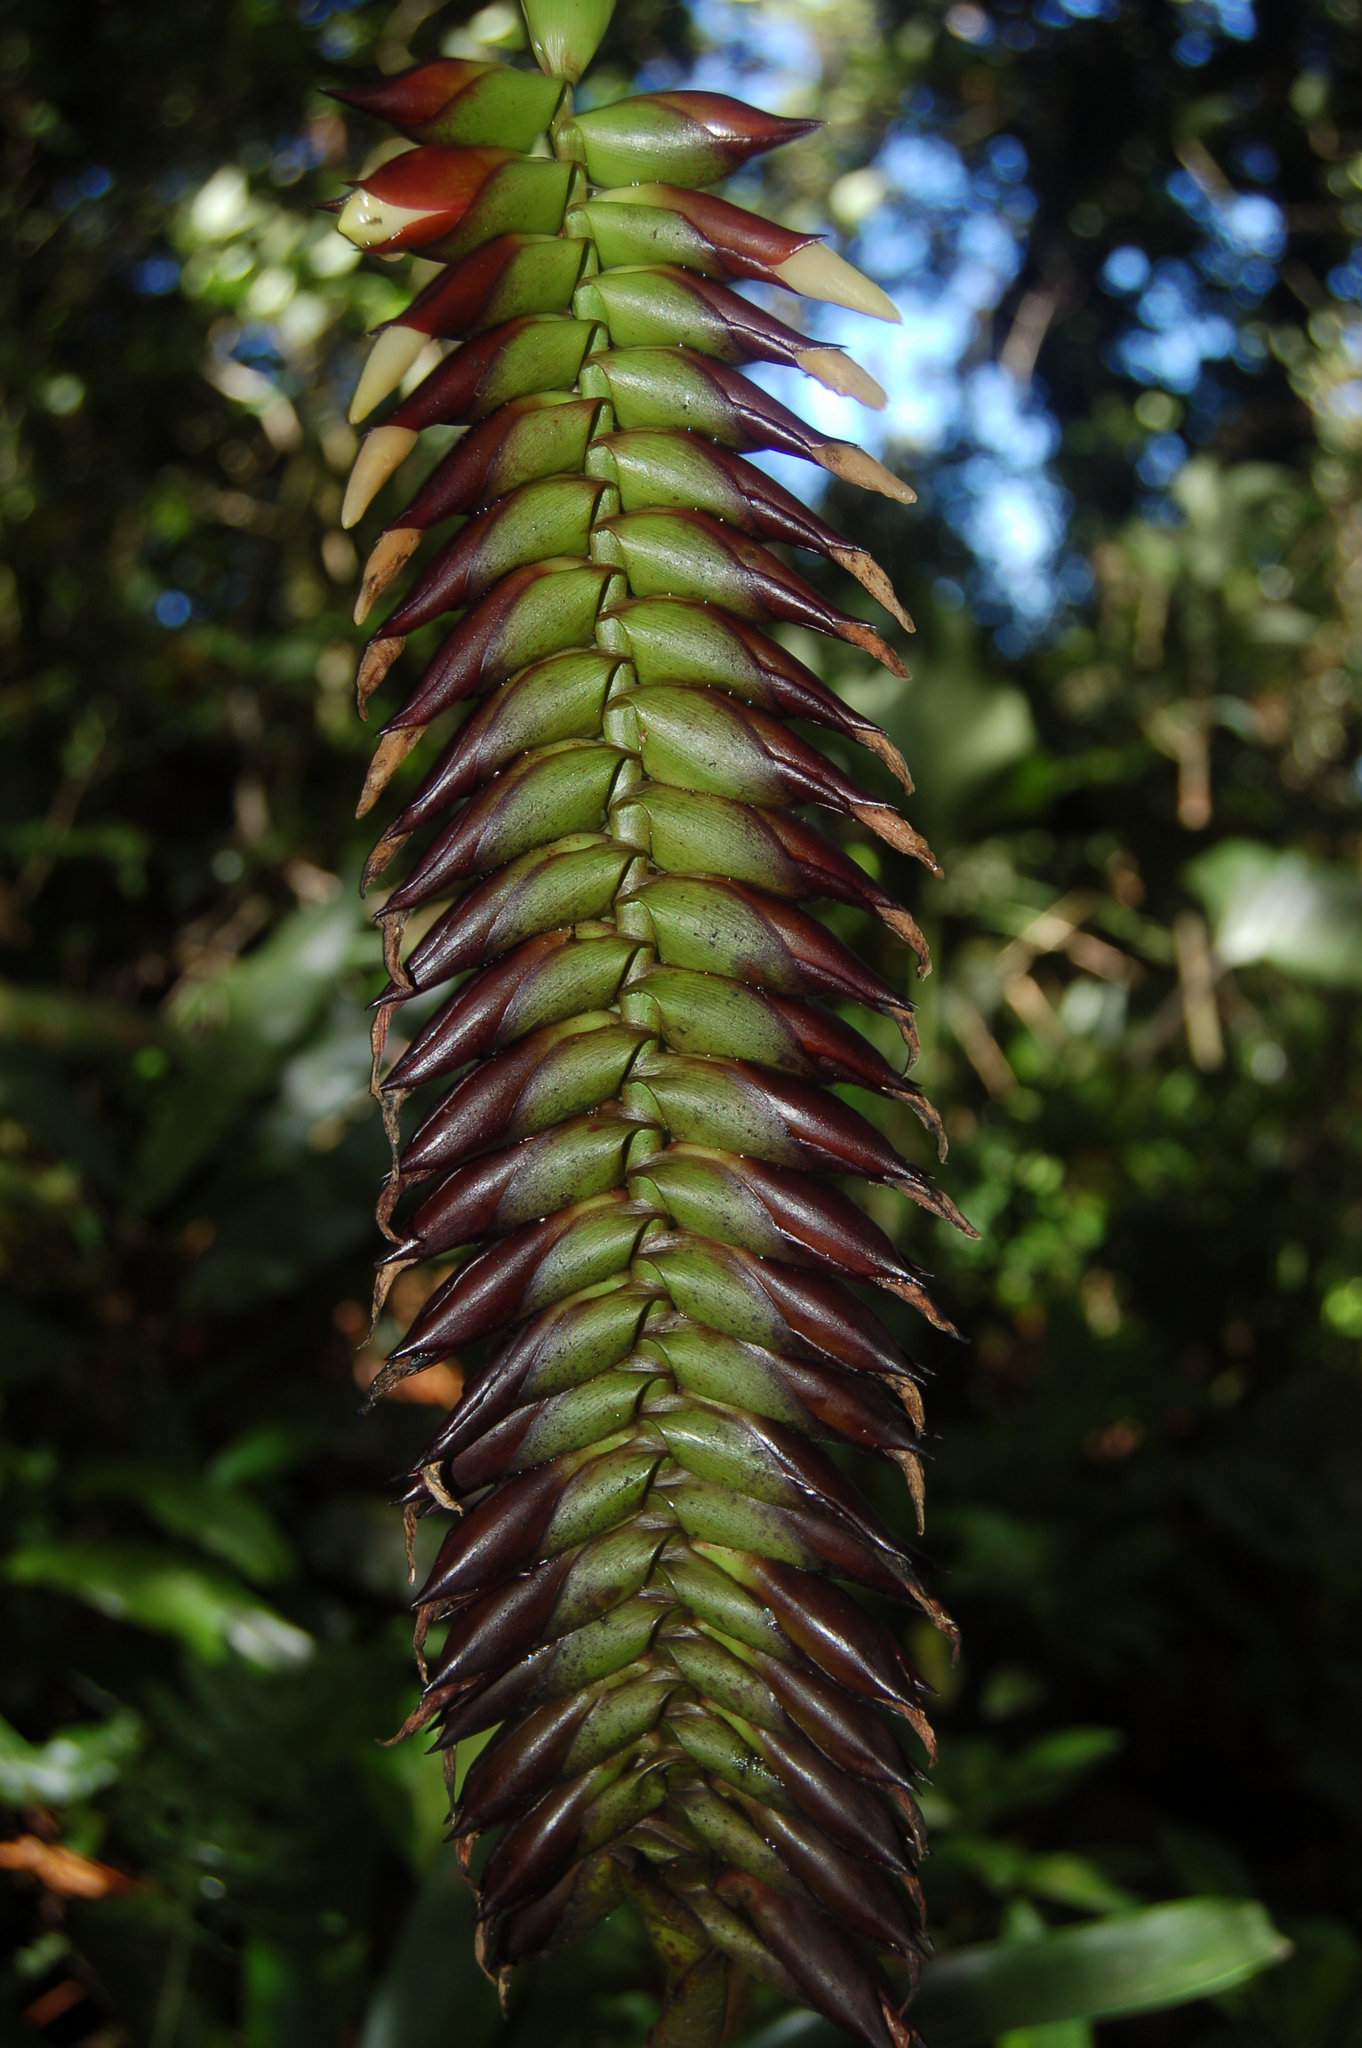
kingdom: Plantae
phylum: Tracheophyta
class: Liliopsida
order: Poales
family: Bromeliaceae
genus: Werauhia
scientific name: Werauhia pycnantha
